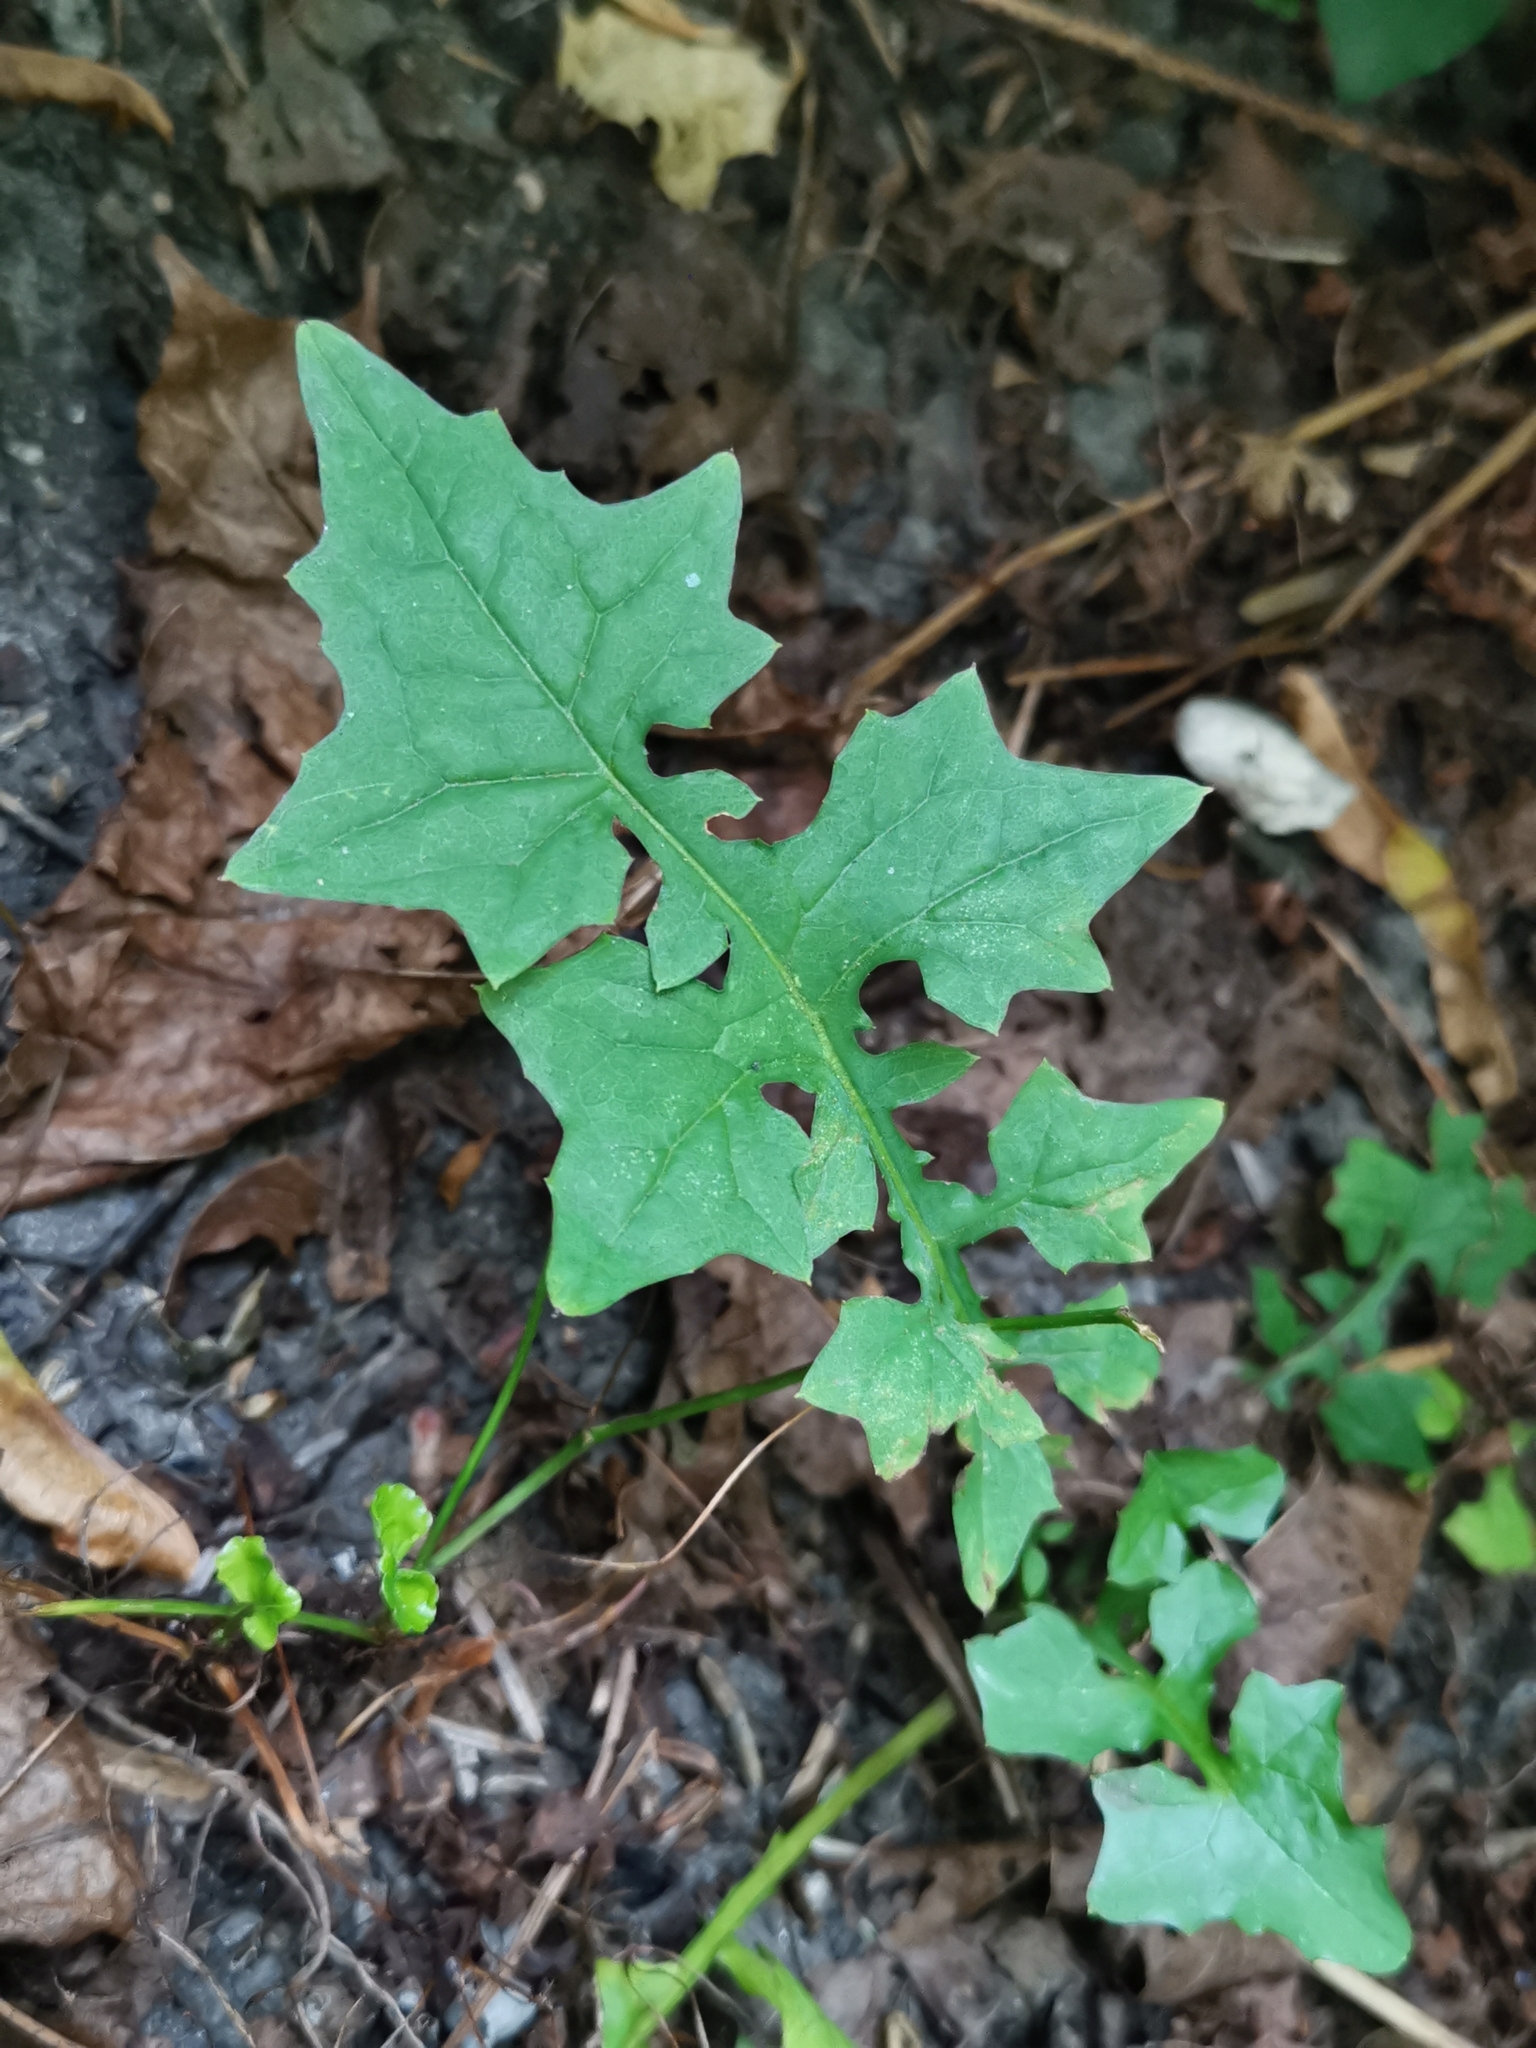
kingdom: Plantae
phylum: Tracheophyta
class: Magnoliopsida
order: Asterales
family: Asteraceae
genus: Mycelis
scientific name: Mycelis muralis
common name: Wall lettuce
